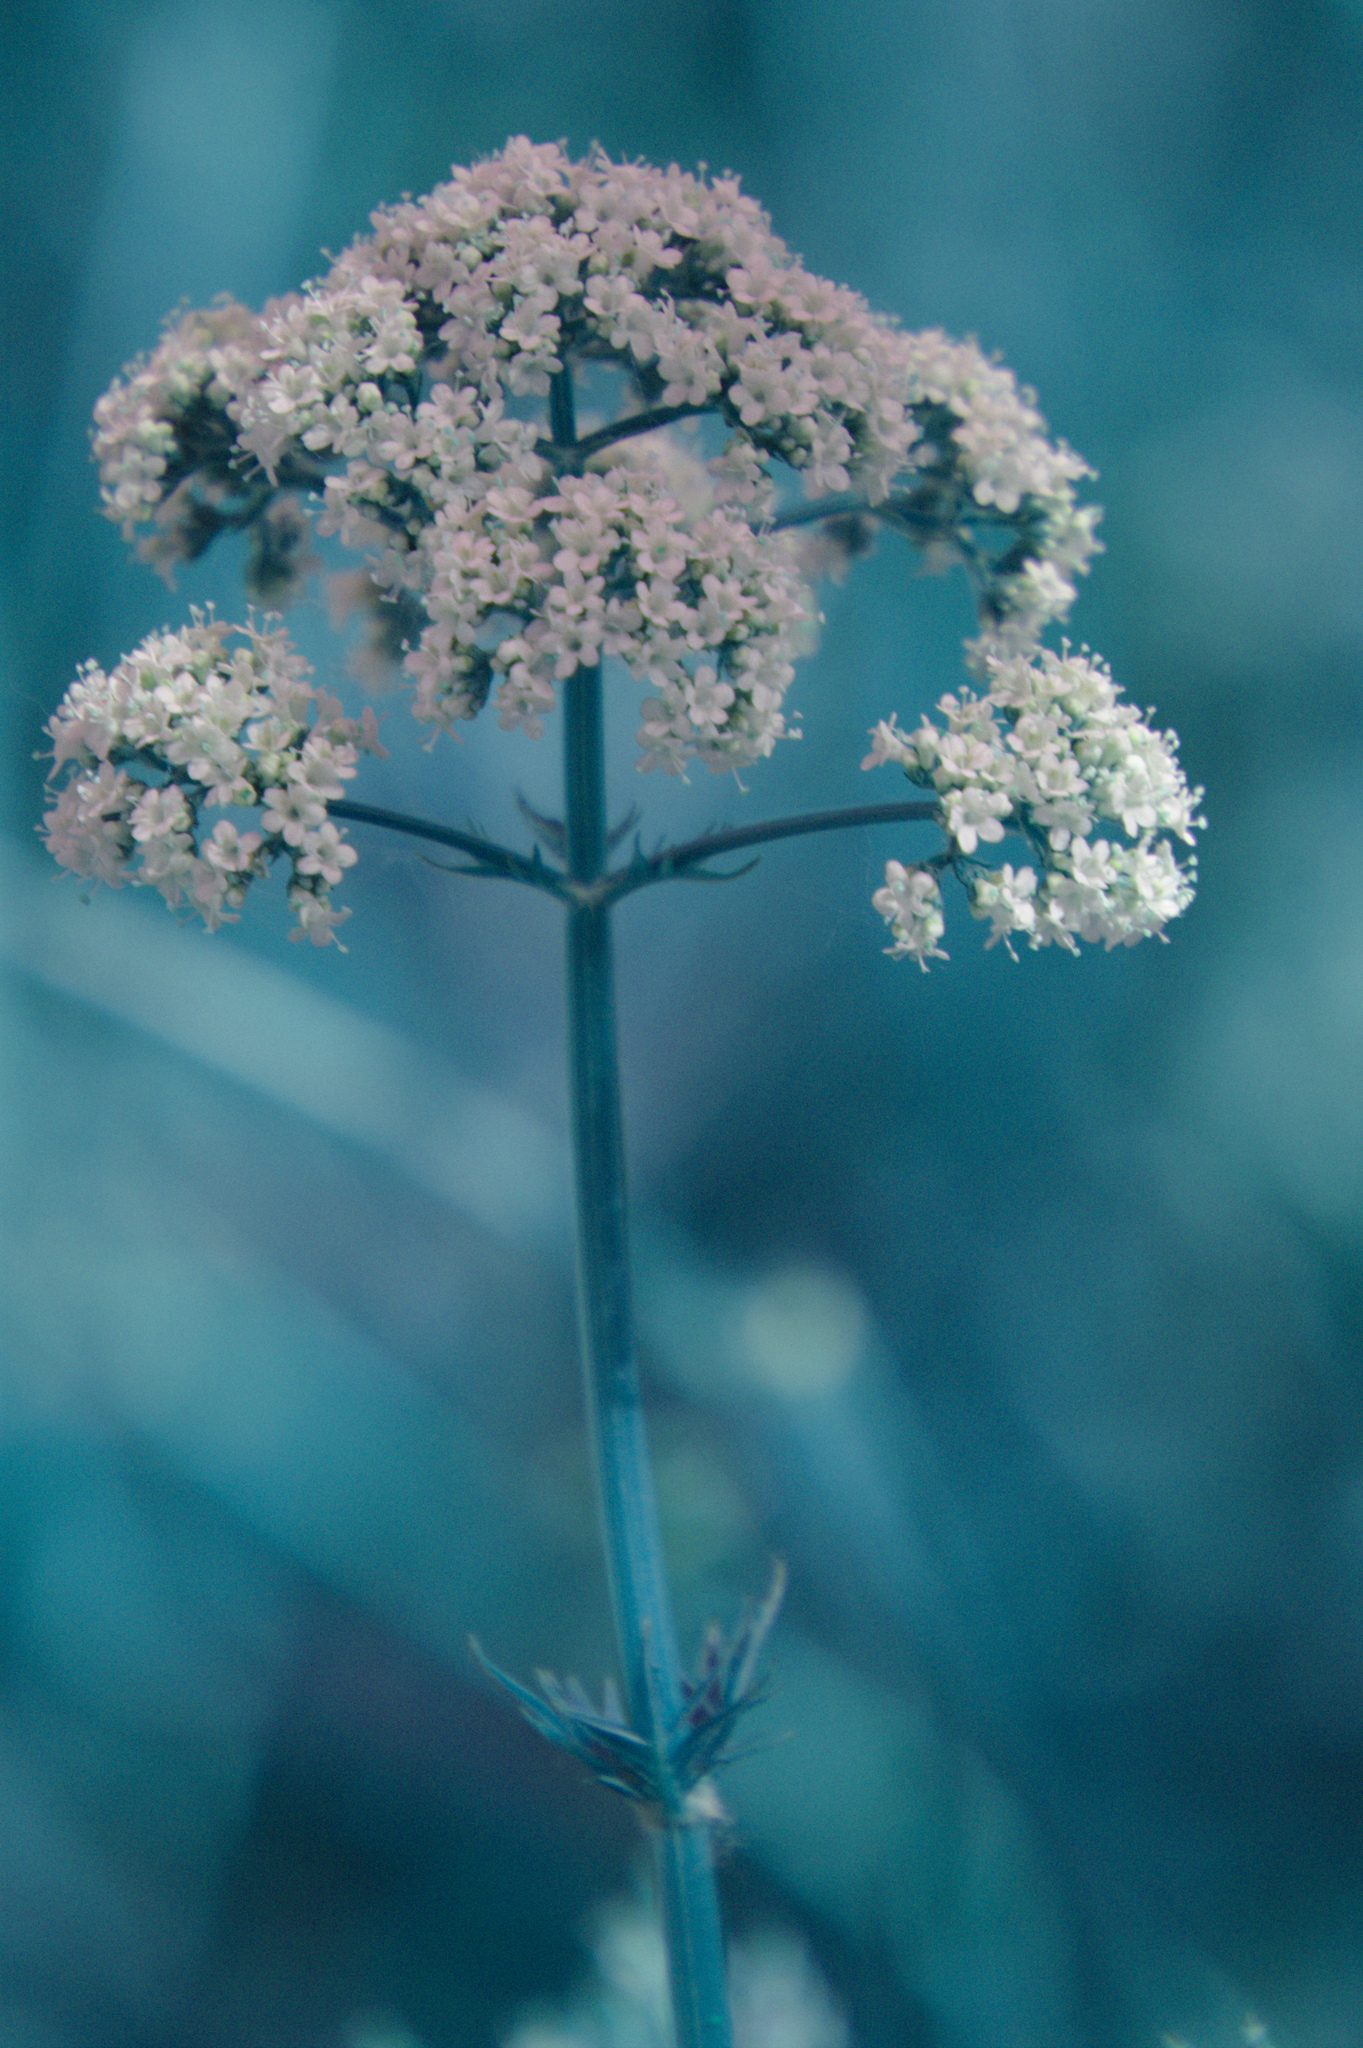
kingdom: Plantae
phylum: Tracheophyta
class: Magnoliopsida
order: Dipsacales
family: Caprifoliaceae
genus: Valeriana
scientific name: Valeriana officinalis
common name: Common valerian
